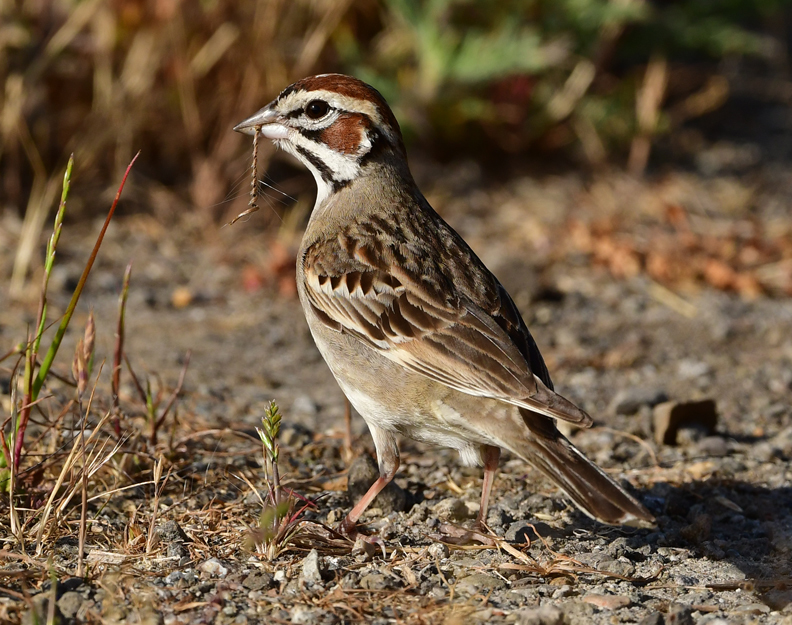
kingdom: Animalia
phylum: Chordata
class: Aves
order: Passeriformes
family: Passerellidae
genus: Chondestes
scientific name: Chondestes grammacus
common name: Lark sparrow
